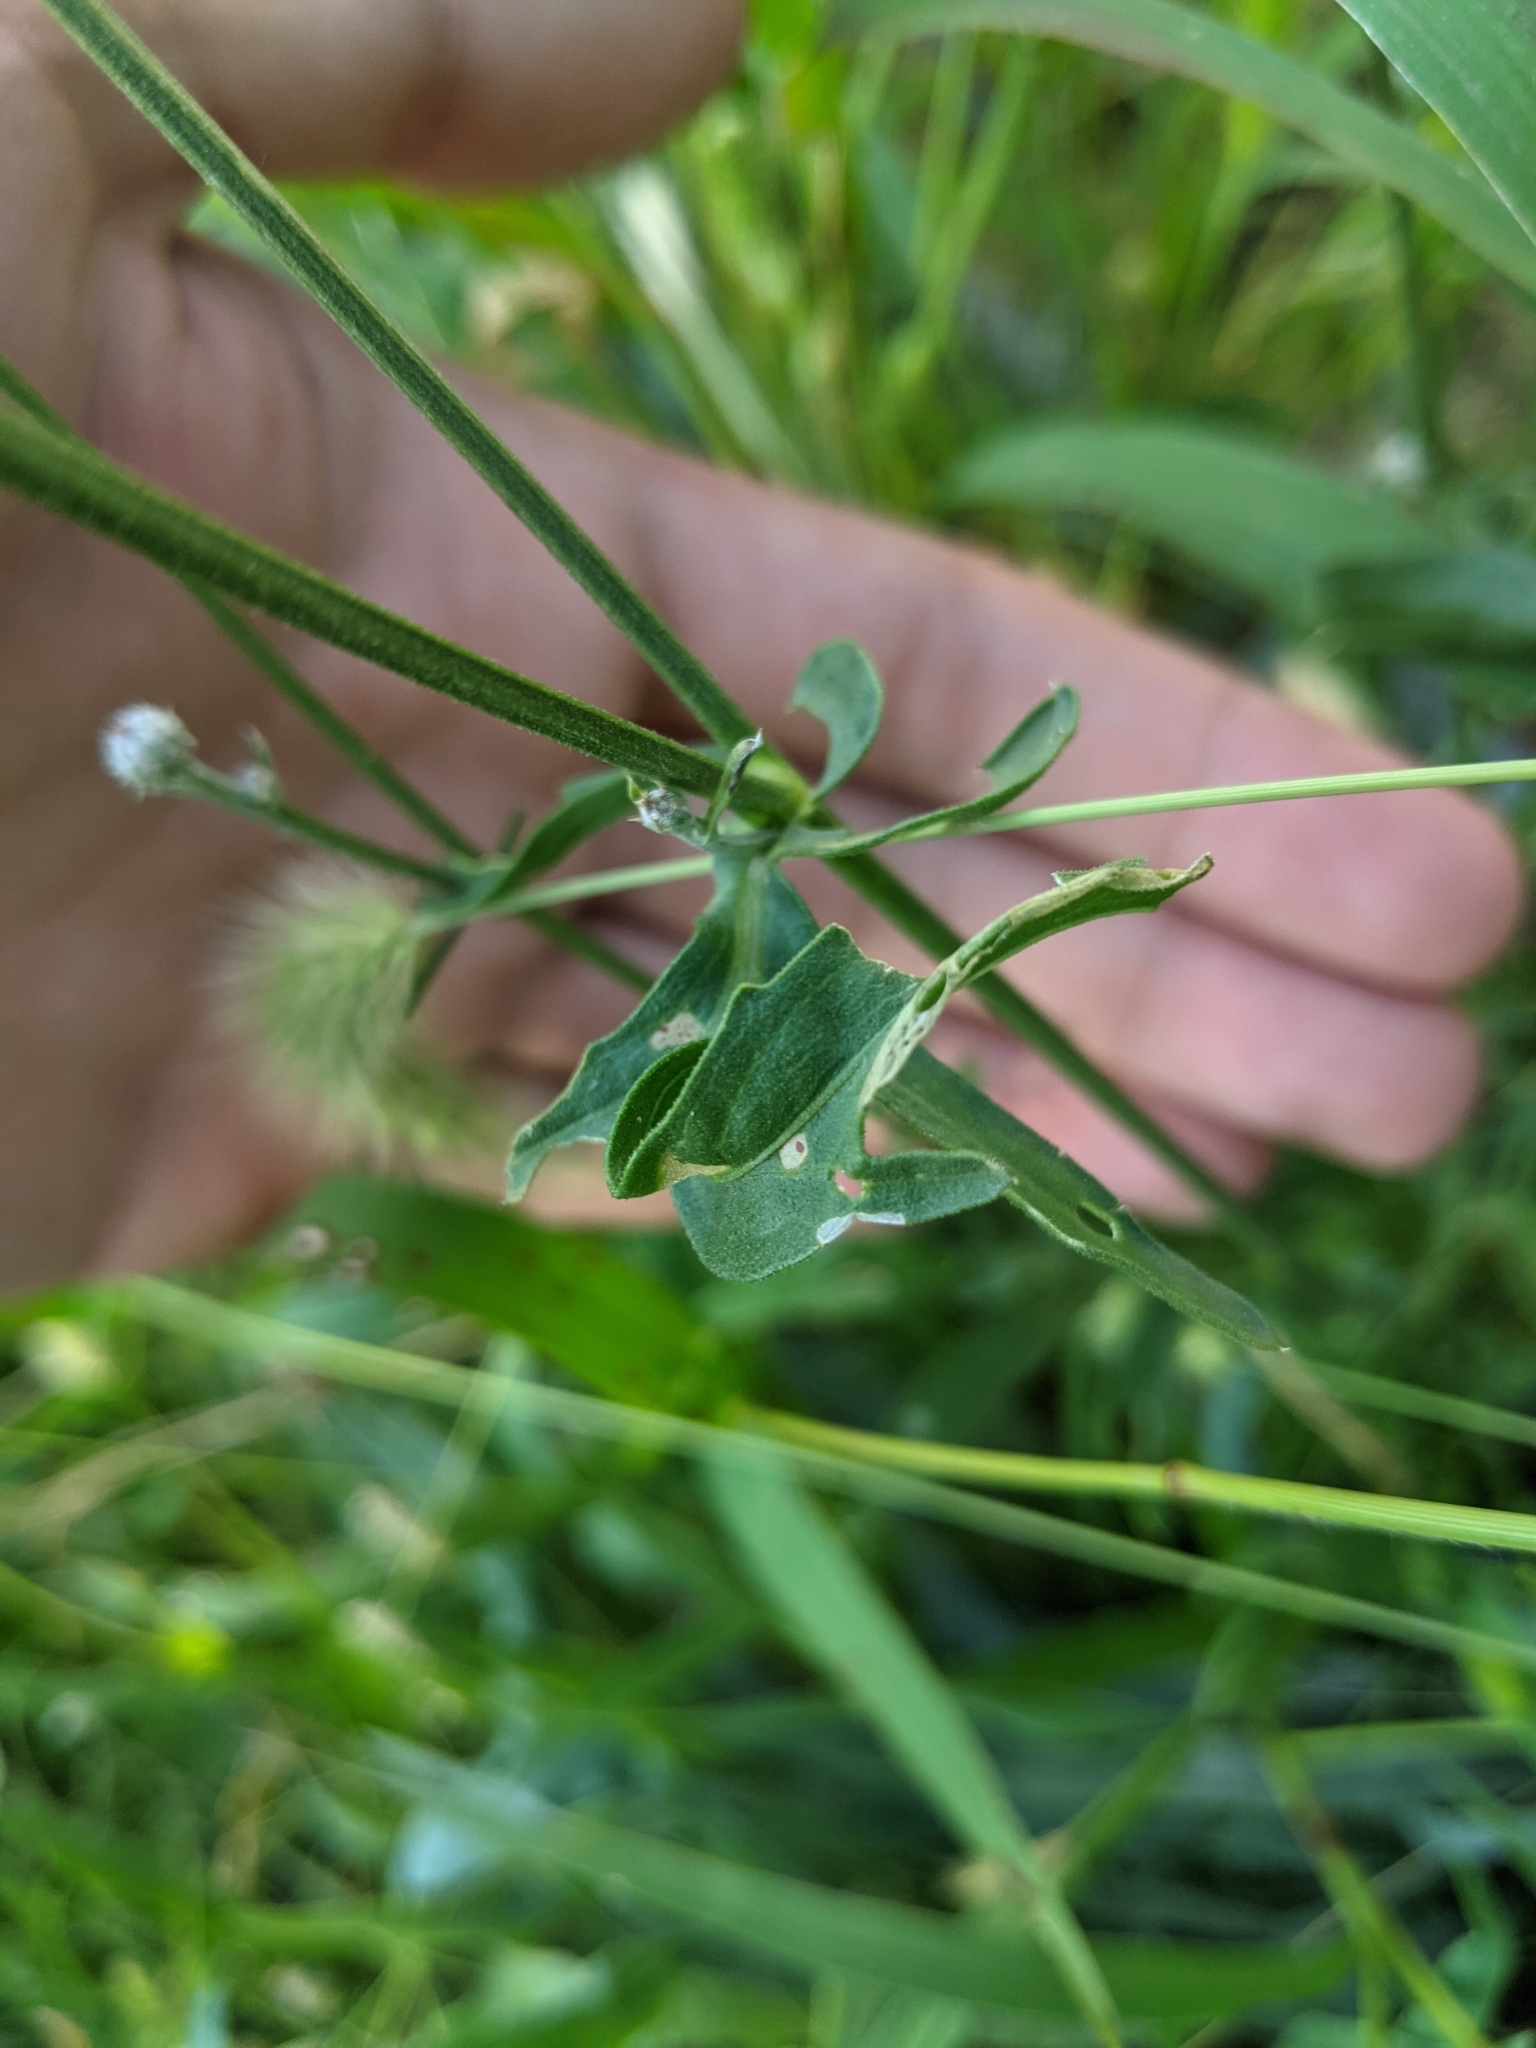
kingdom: Plantae
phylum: Tracheophyta
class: Magnoliopsida
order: Asterales
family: Asteraceae
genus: Centaurea
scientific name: Centaurea scabiosa
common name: Greater knapweed
